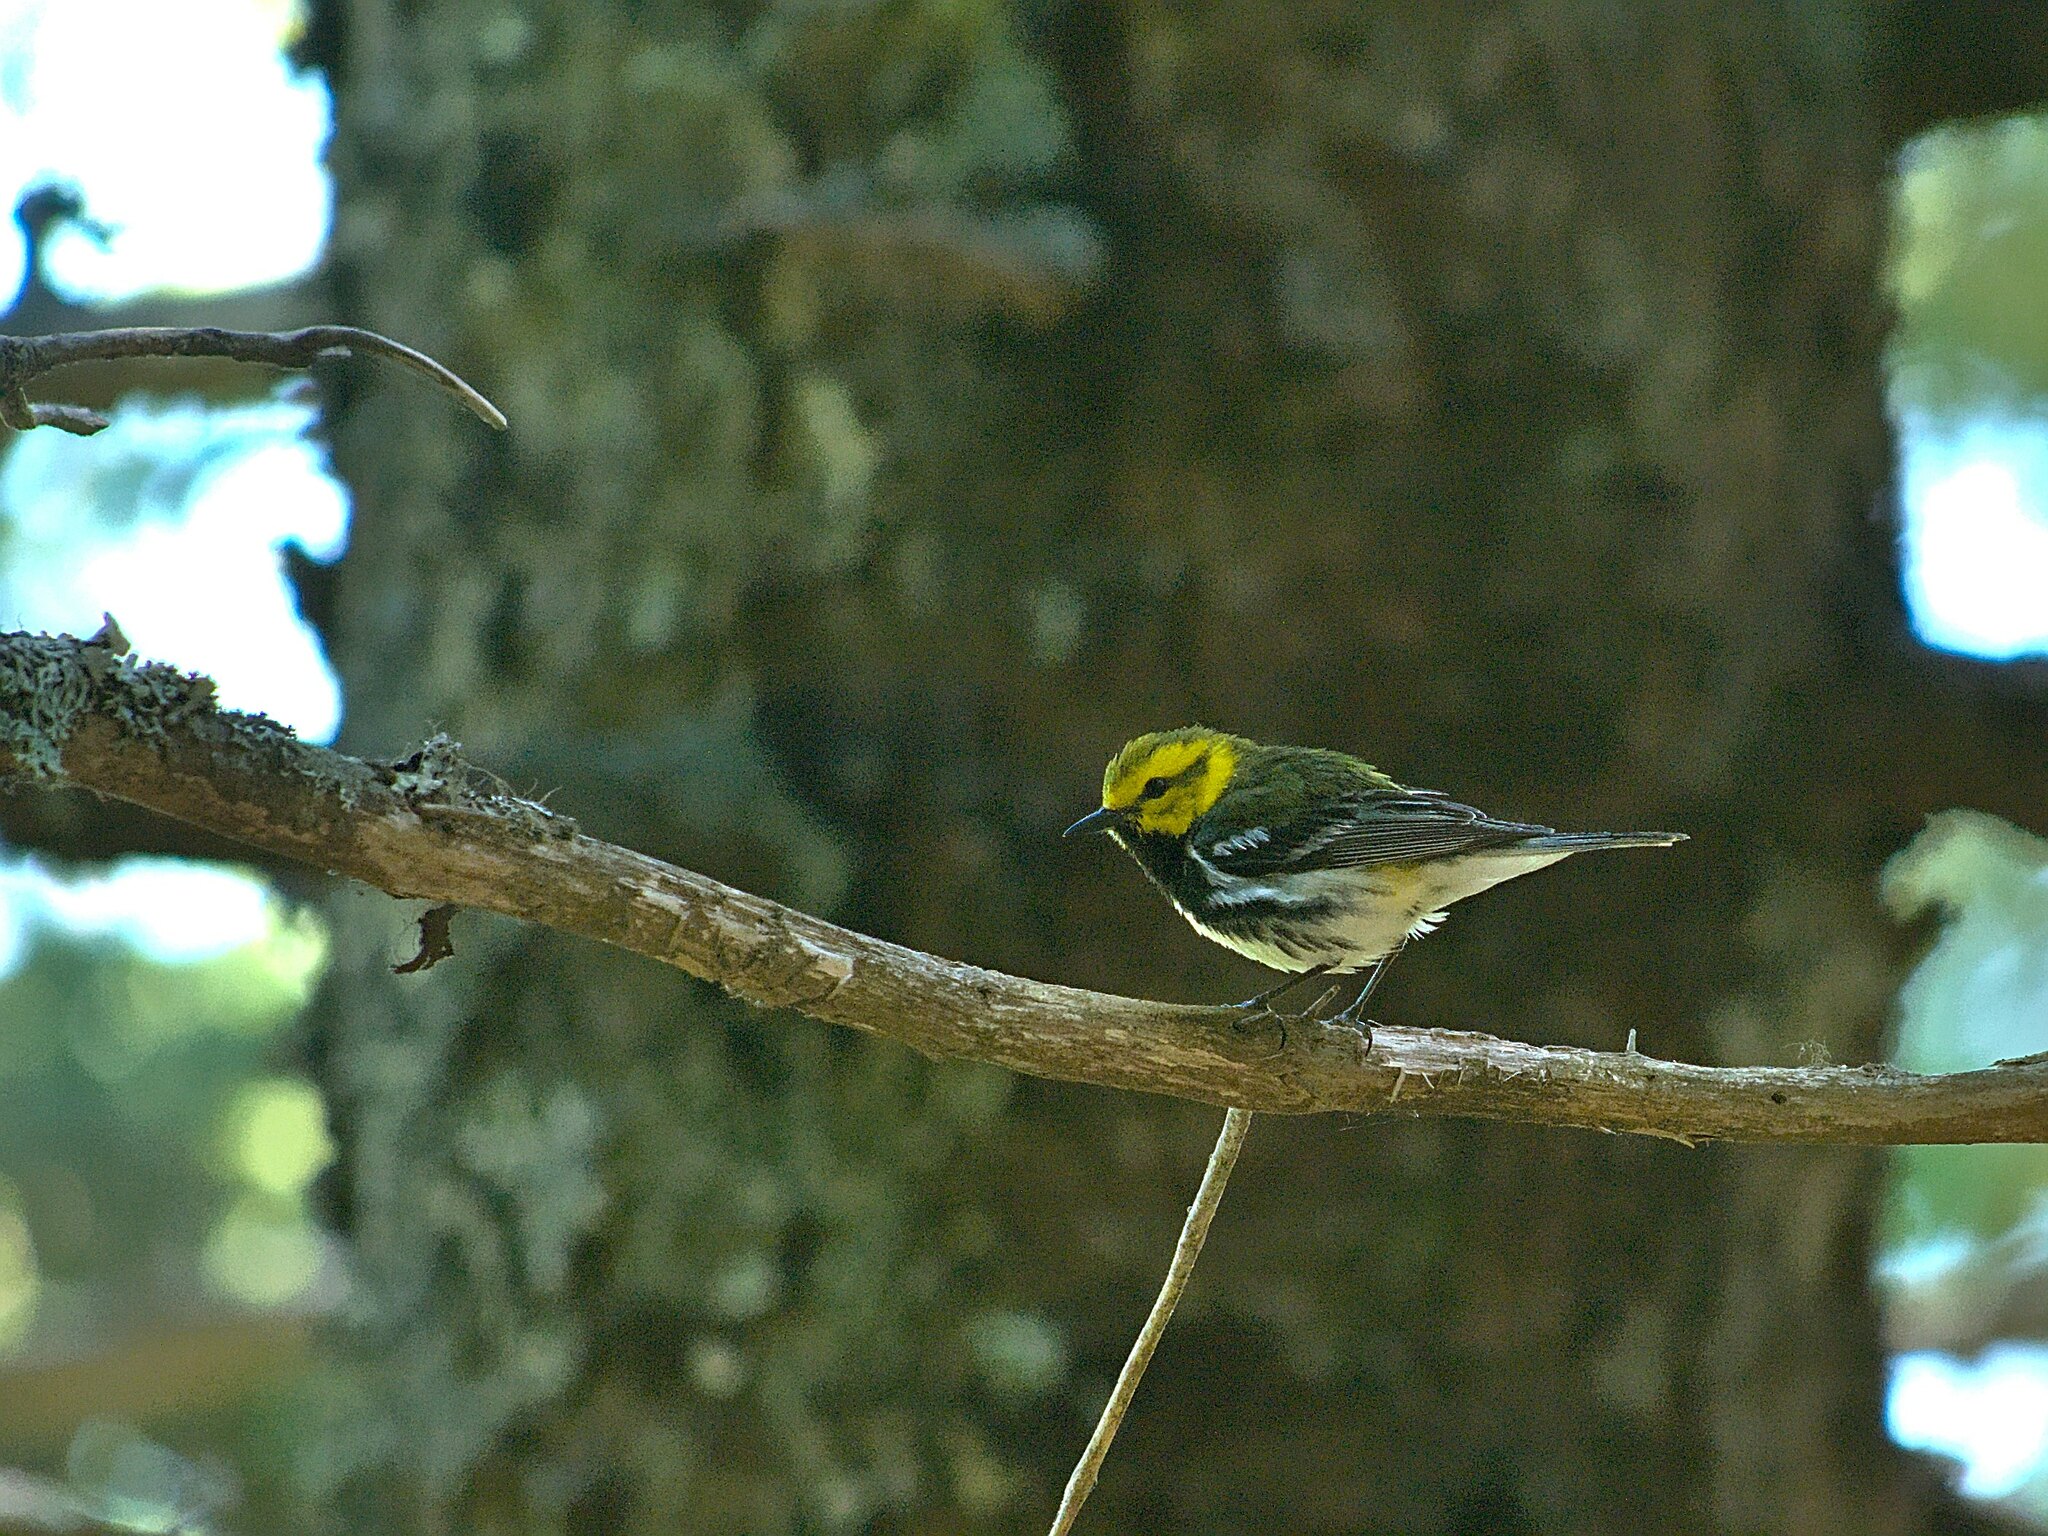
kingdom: Animalia
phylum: Chordata
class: Aves
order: Passeriformes
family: Parulidae
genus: Setophaga
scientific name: Setophaga virens
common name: Black-throated green warbler
